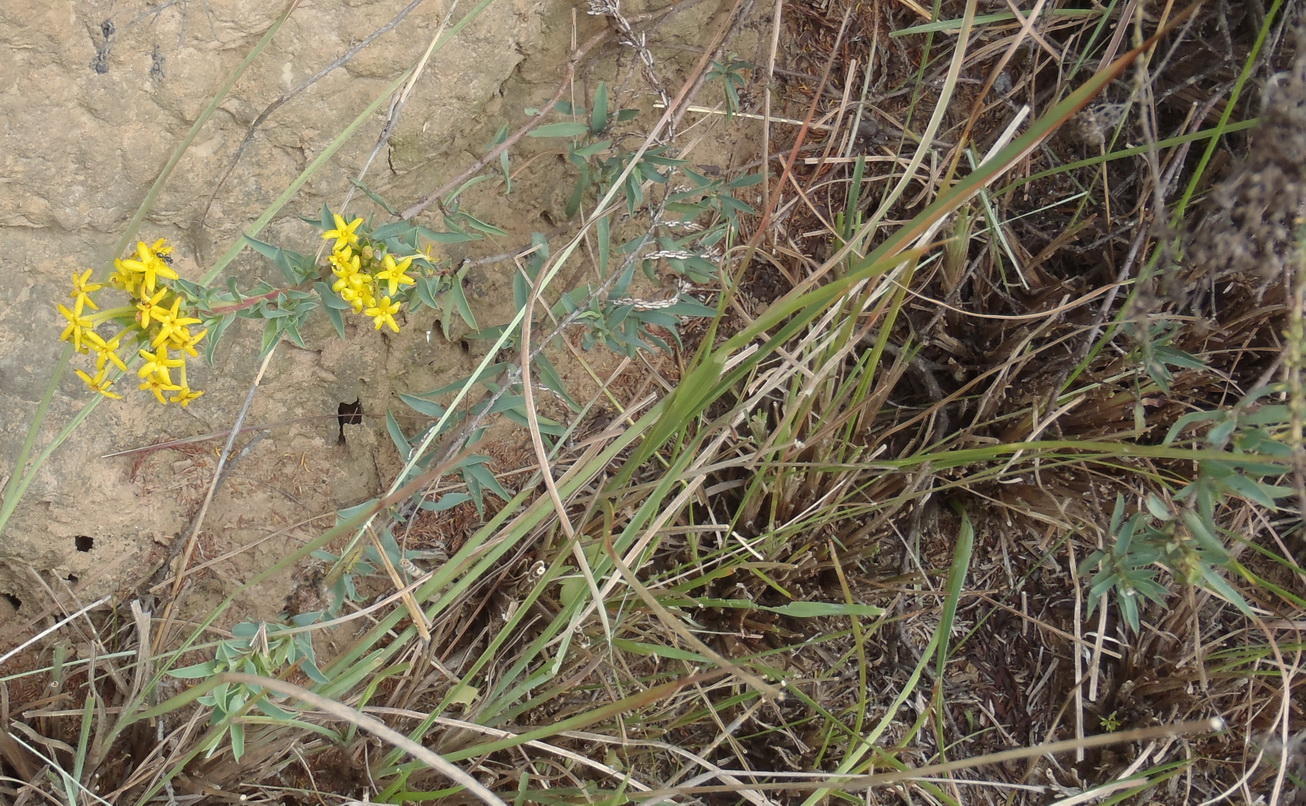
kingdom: Plantae
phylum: Tracheophyta
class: Magnoliopsida
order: Malvales
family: Thymelaeaceae
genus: Gnidia
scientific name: Gnidia capitata
